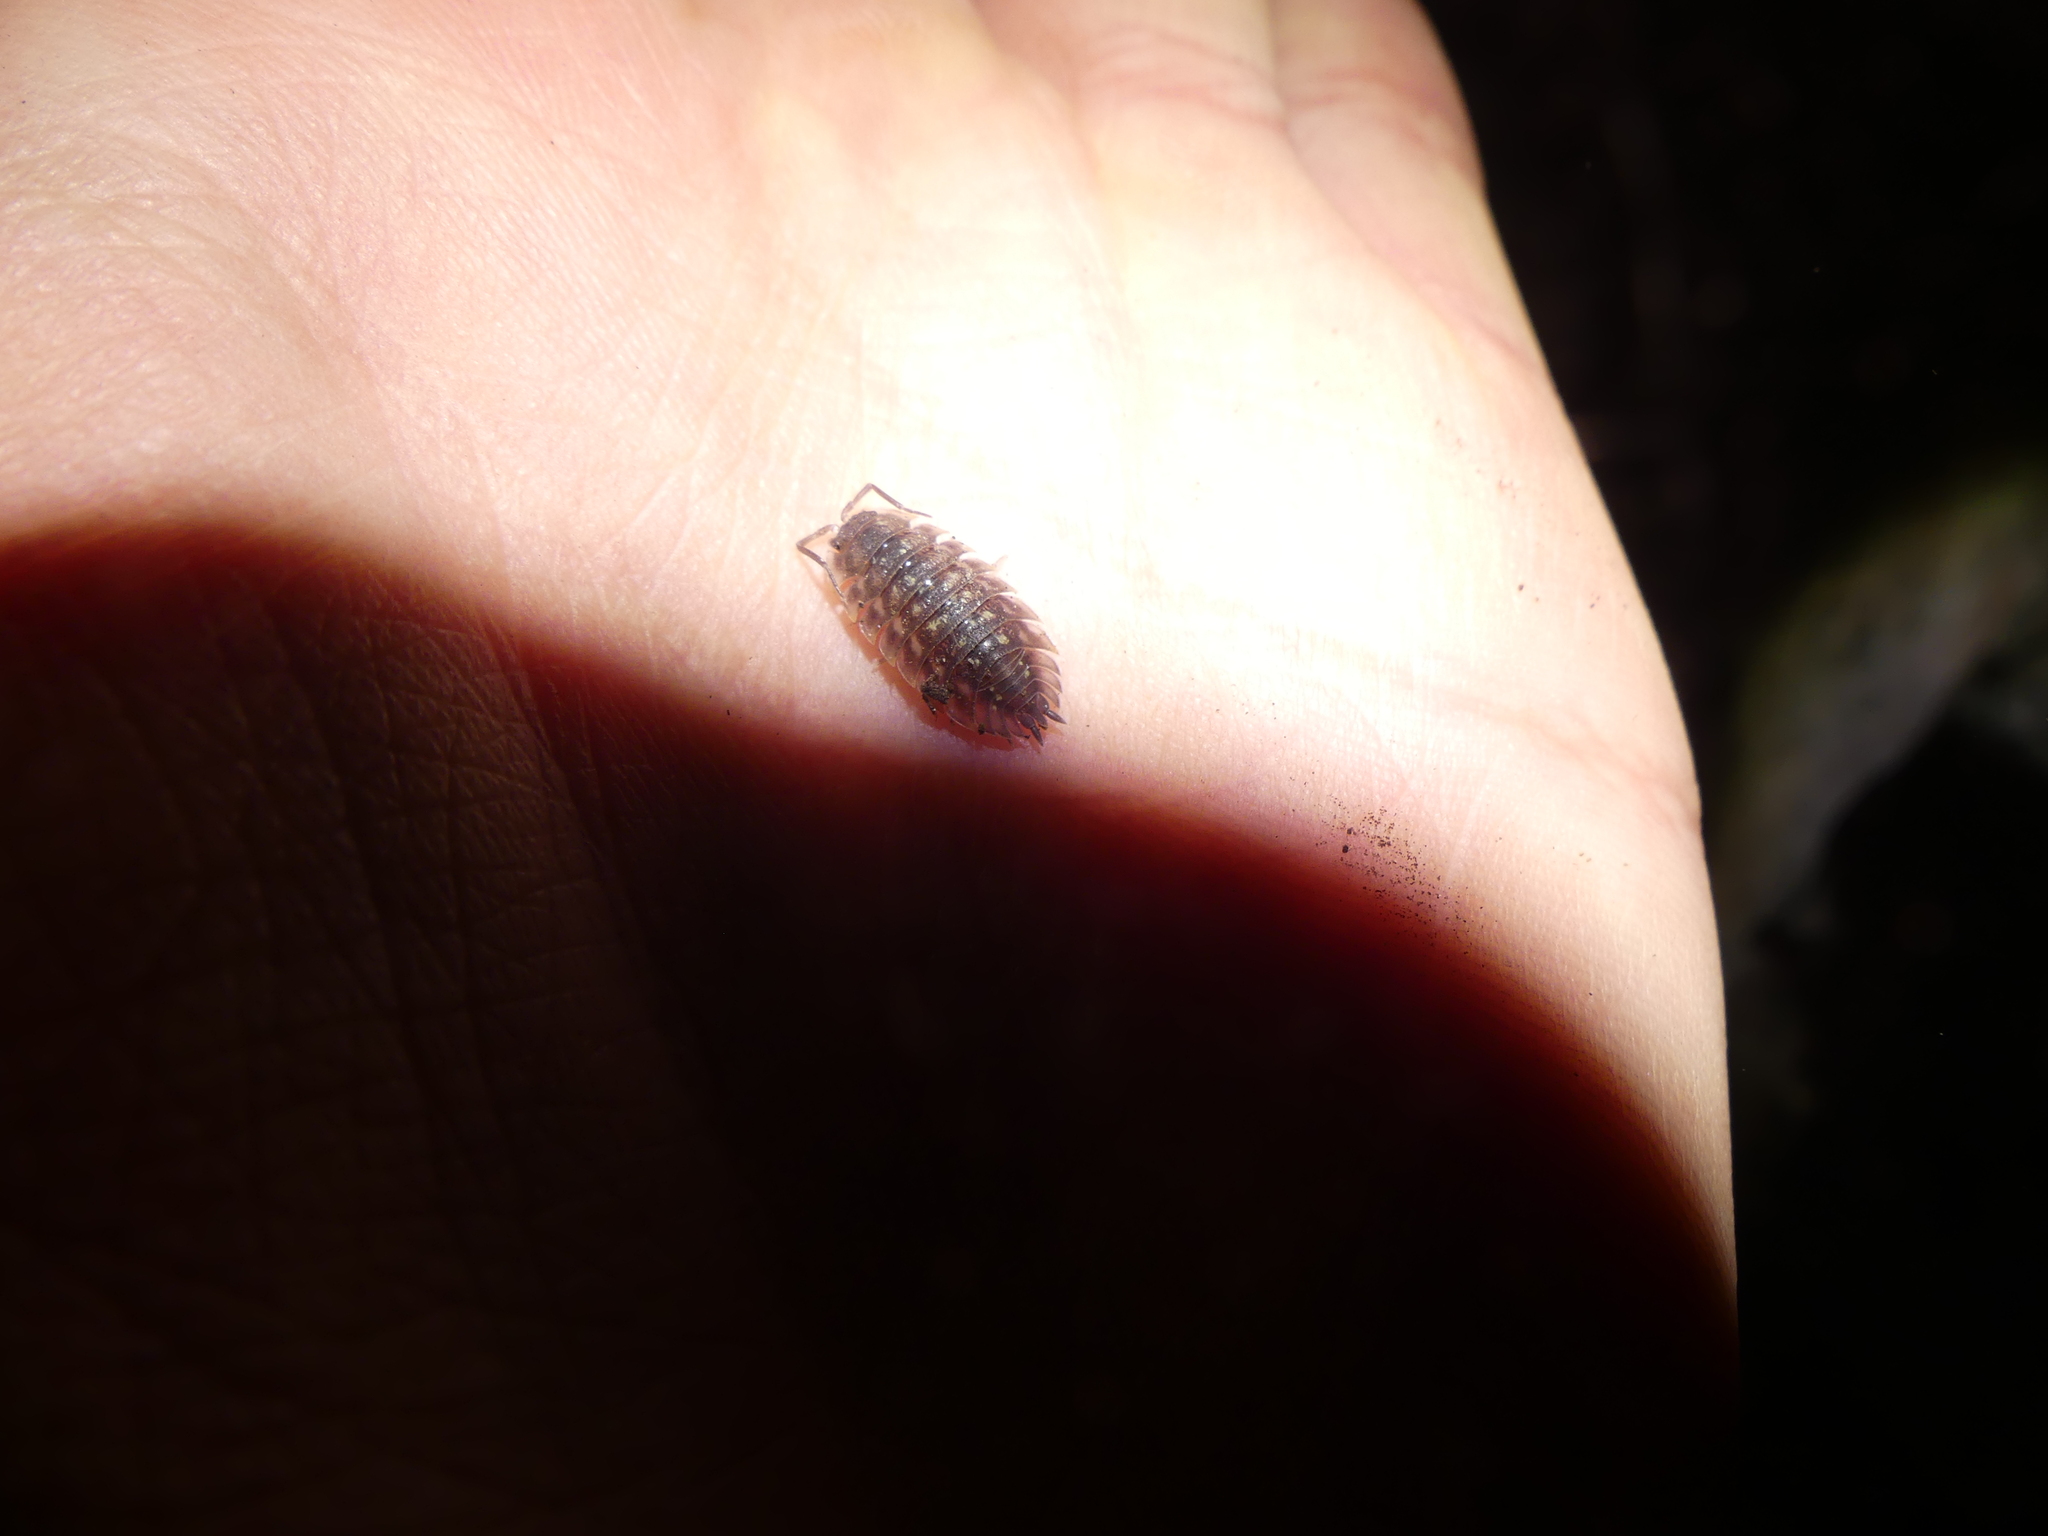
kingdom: Animalia
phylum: Arthropoda
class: Malacostraca
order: Isopoda
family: Oniscidae
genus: Oniscus
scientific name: Oniscus asellus
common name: Common shiny woodlouse
